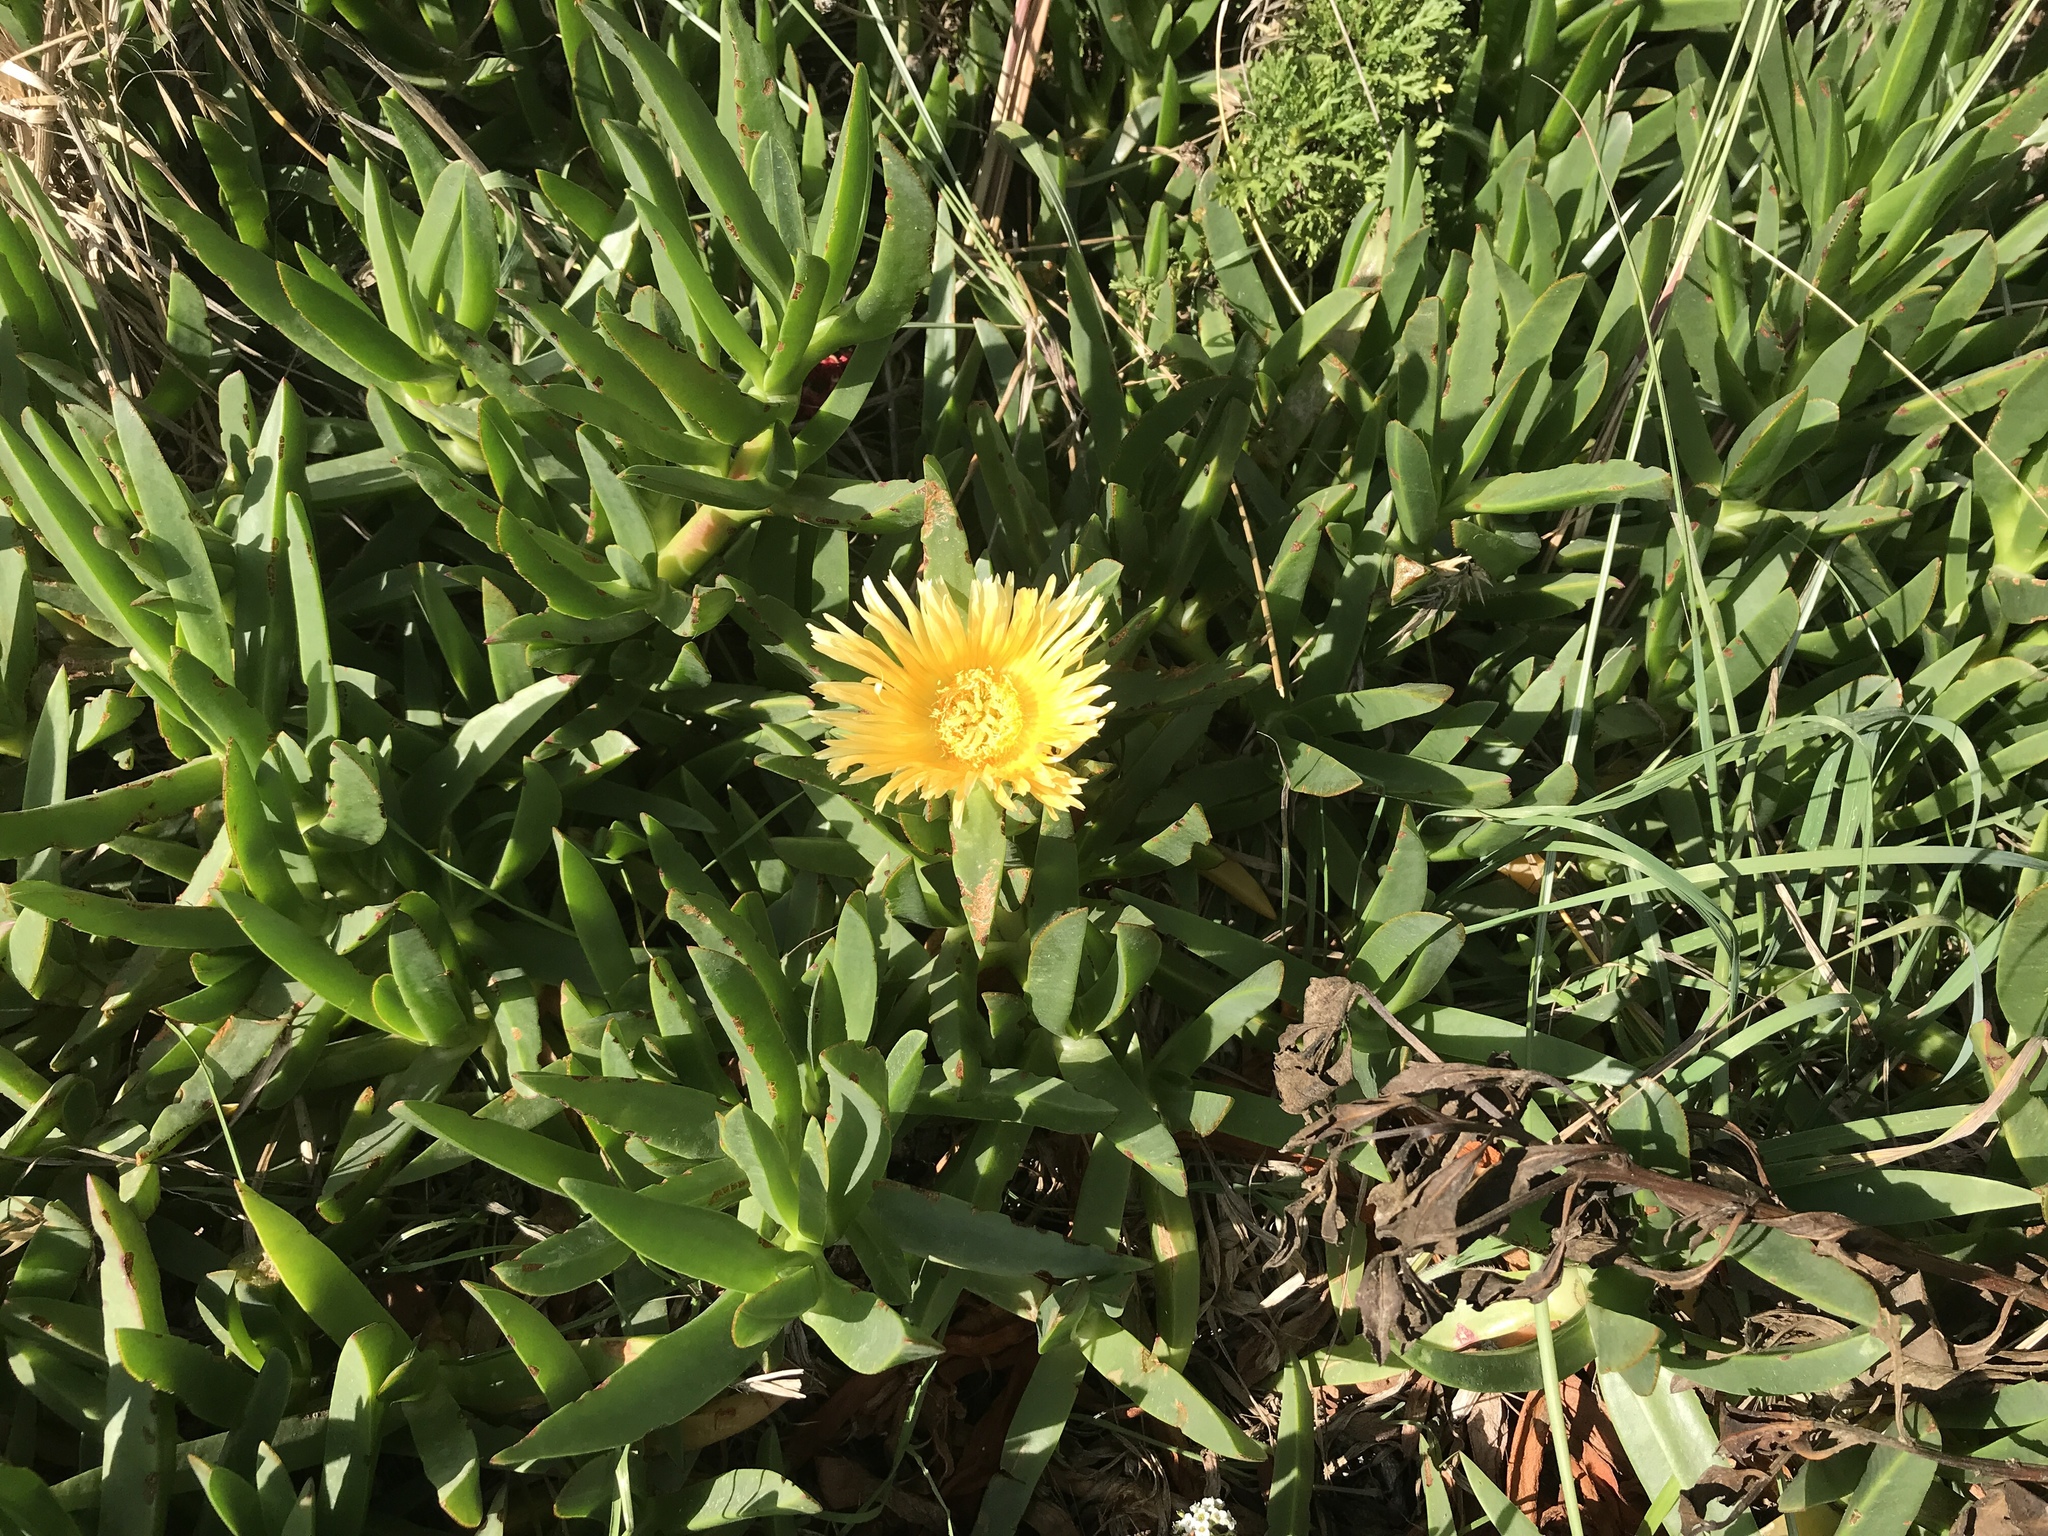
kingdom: Plantae
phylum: Tracheophyta
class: Magnoliopsida
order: Caryophyllales
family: Aizoaceae
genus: Carpobrotus
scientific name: Carpobrotus edulis
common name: Hottentot-fig
